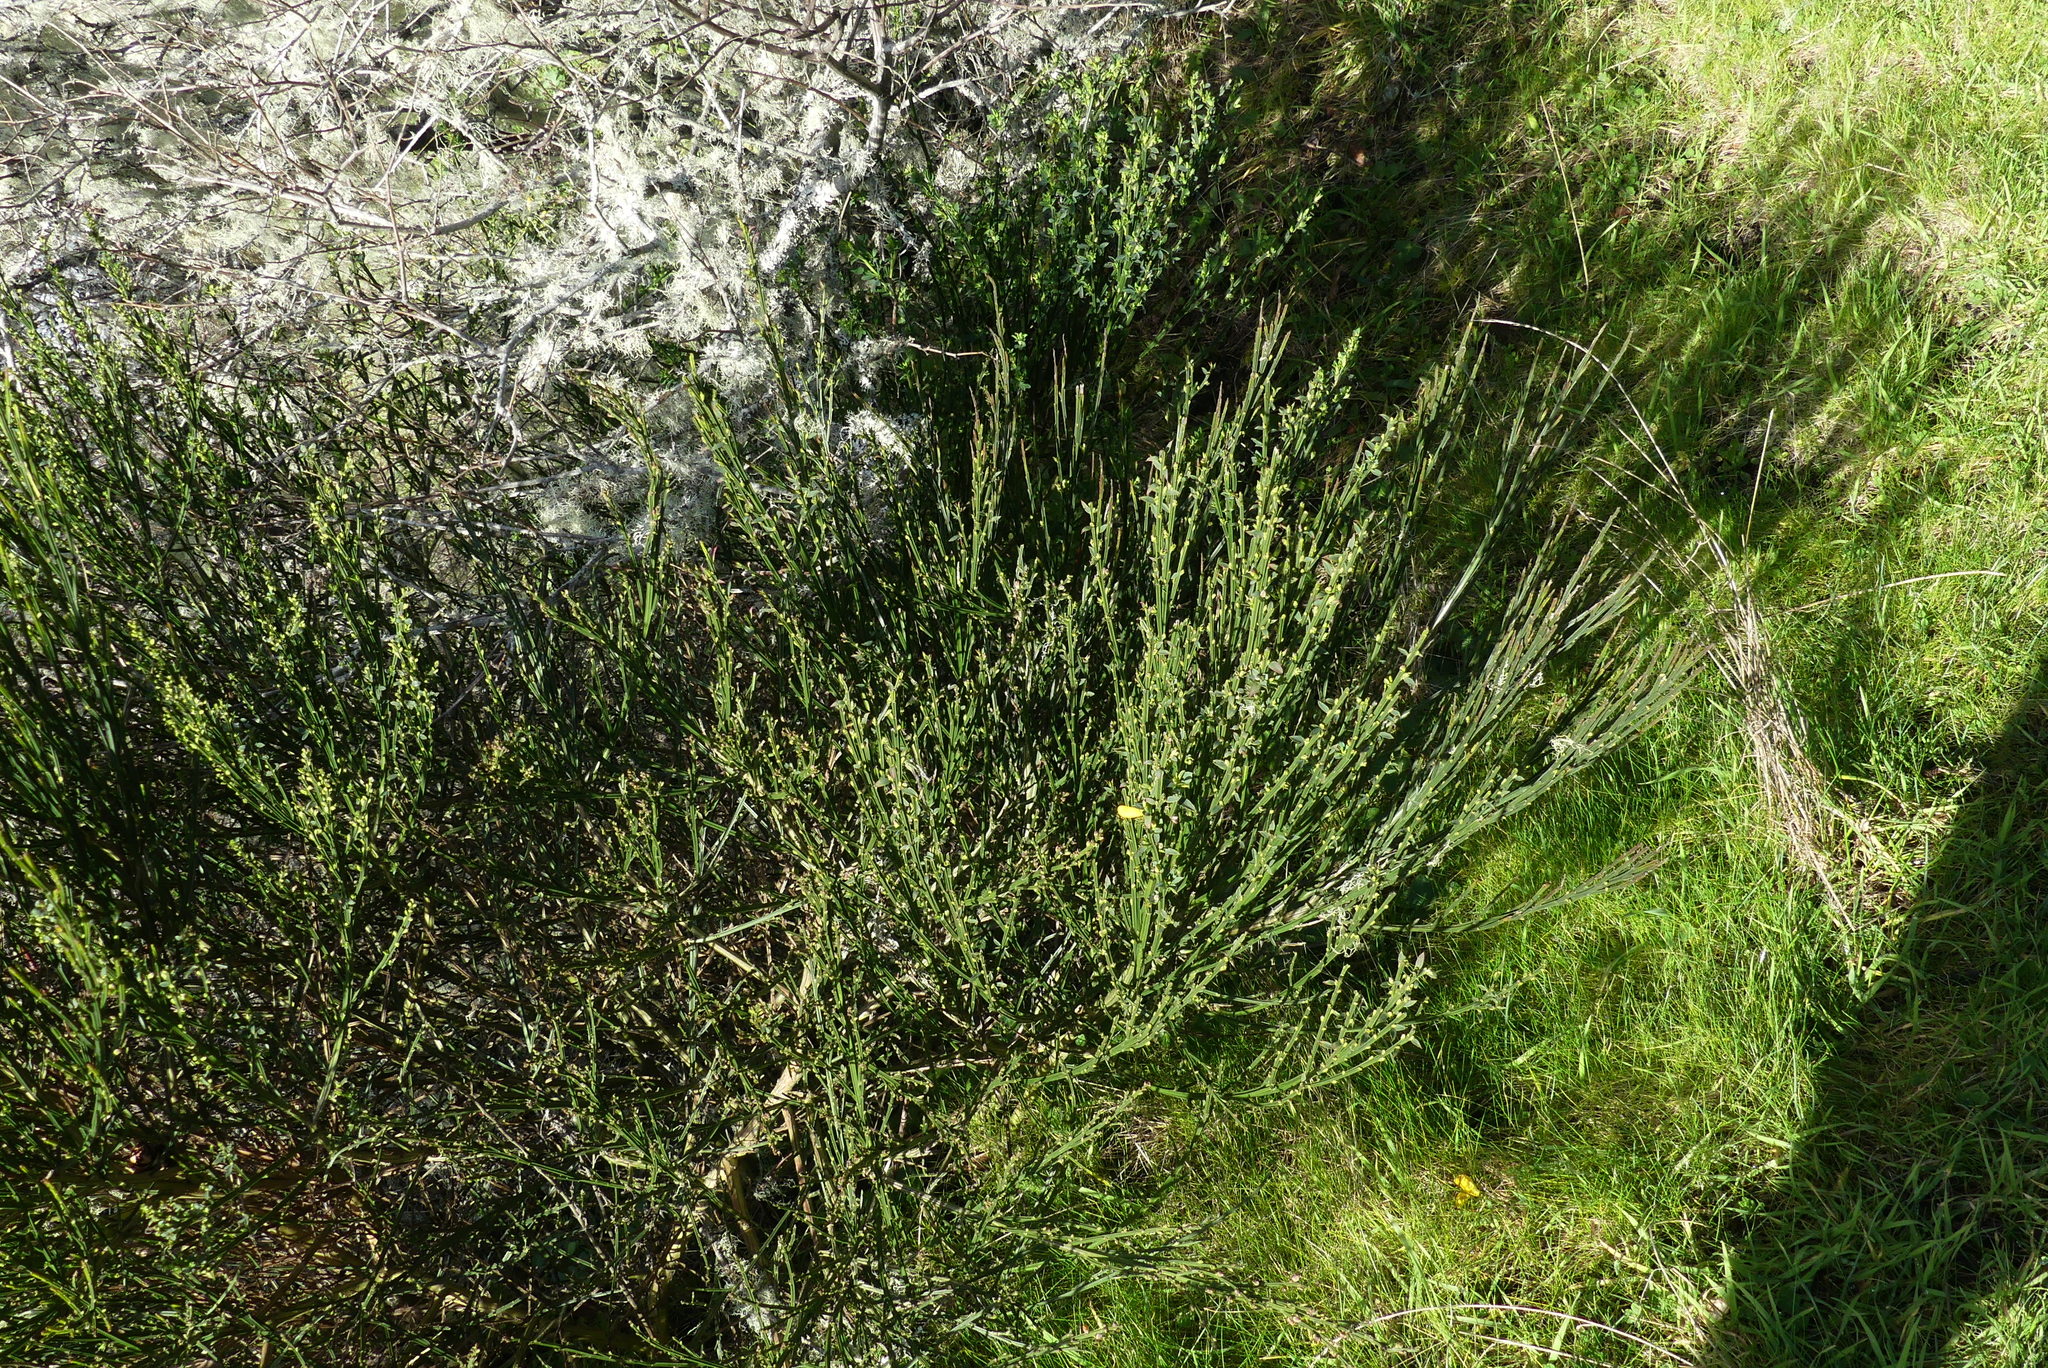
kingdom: Plantae
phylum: Tracheophyta
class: Magnoliopsida
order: Fabales
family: Fabaceae
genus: Cytisus
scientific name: Cytisus scoparius
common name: Scotch broom
